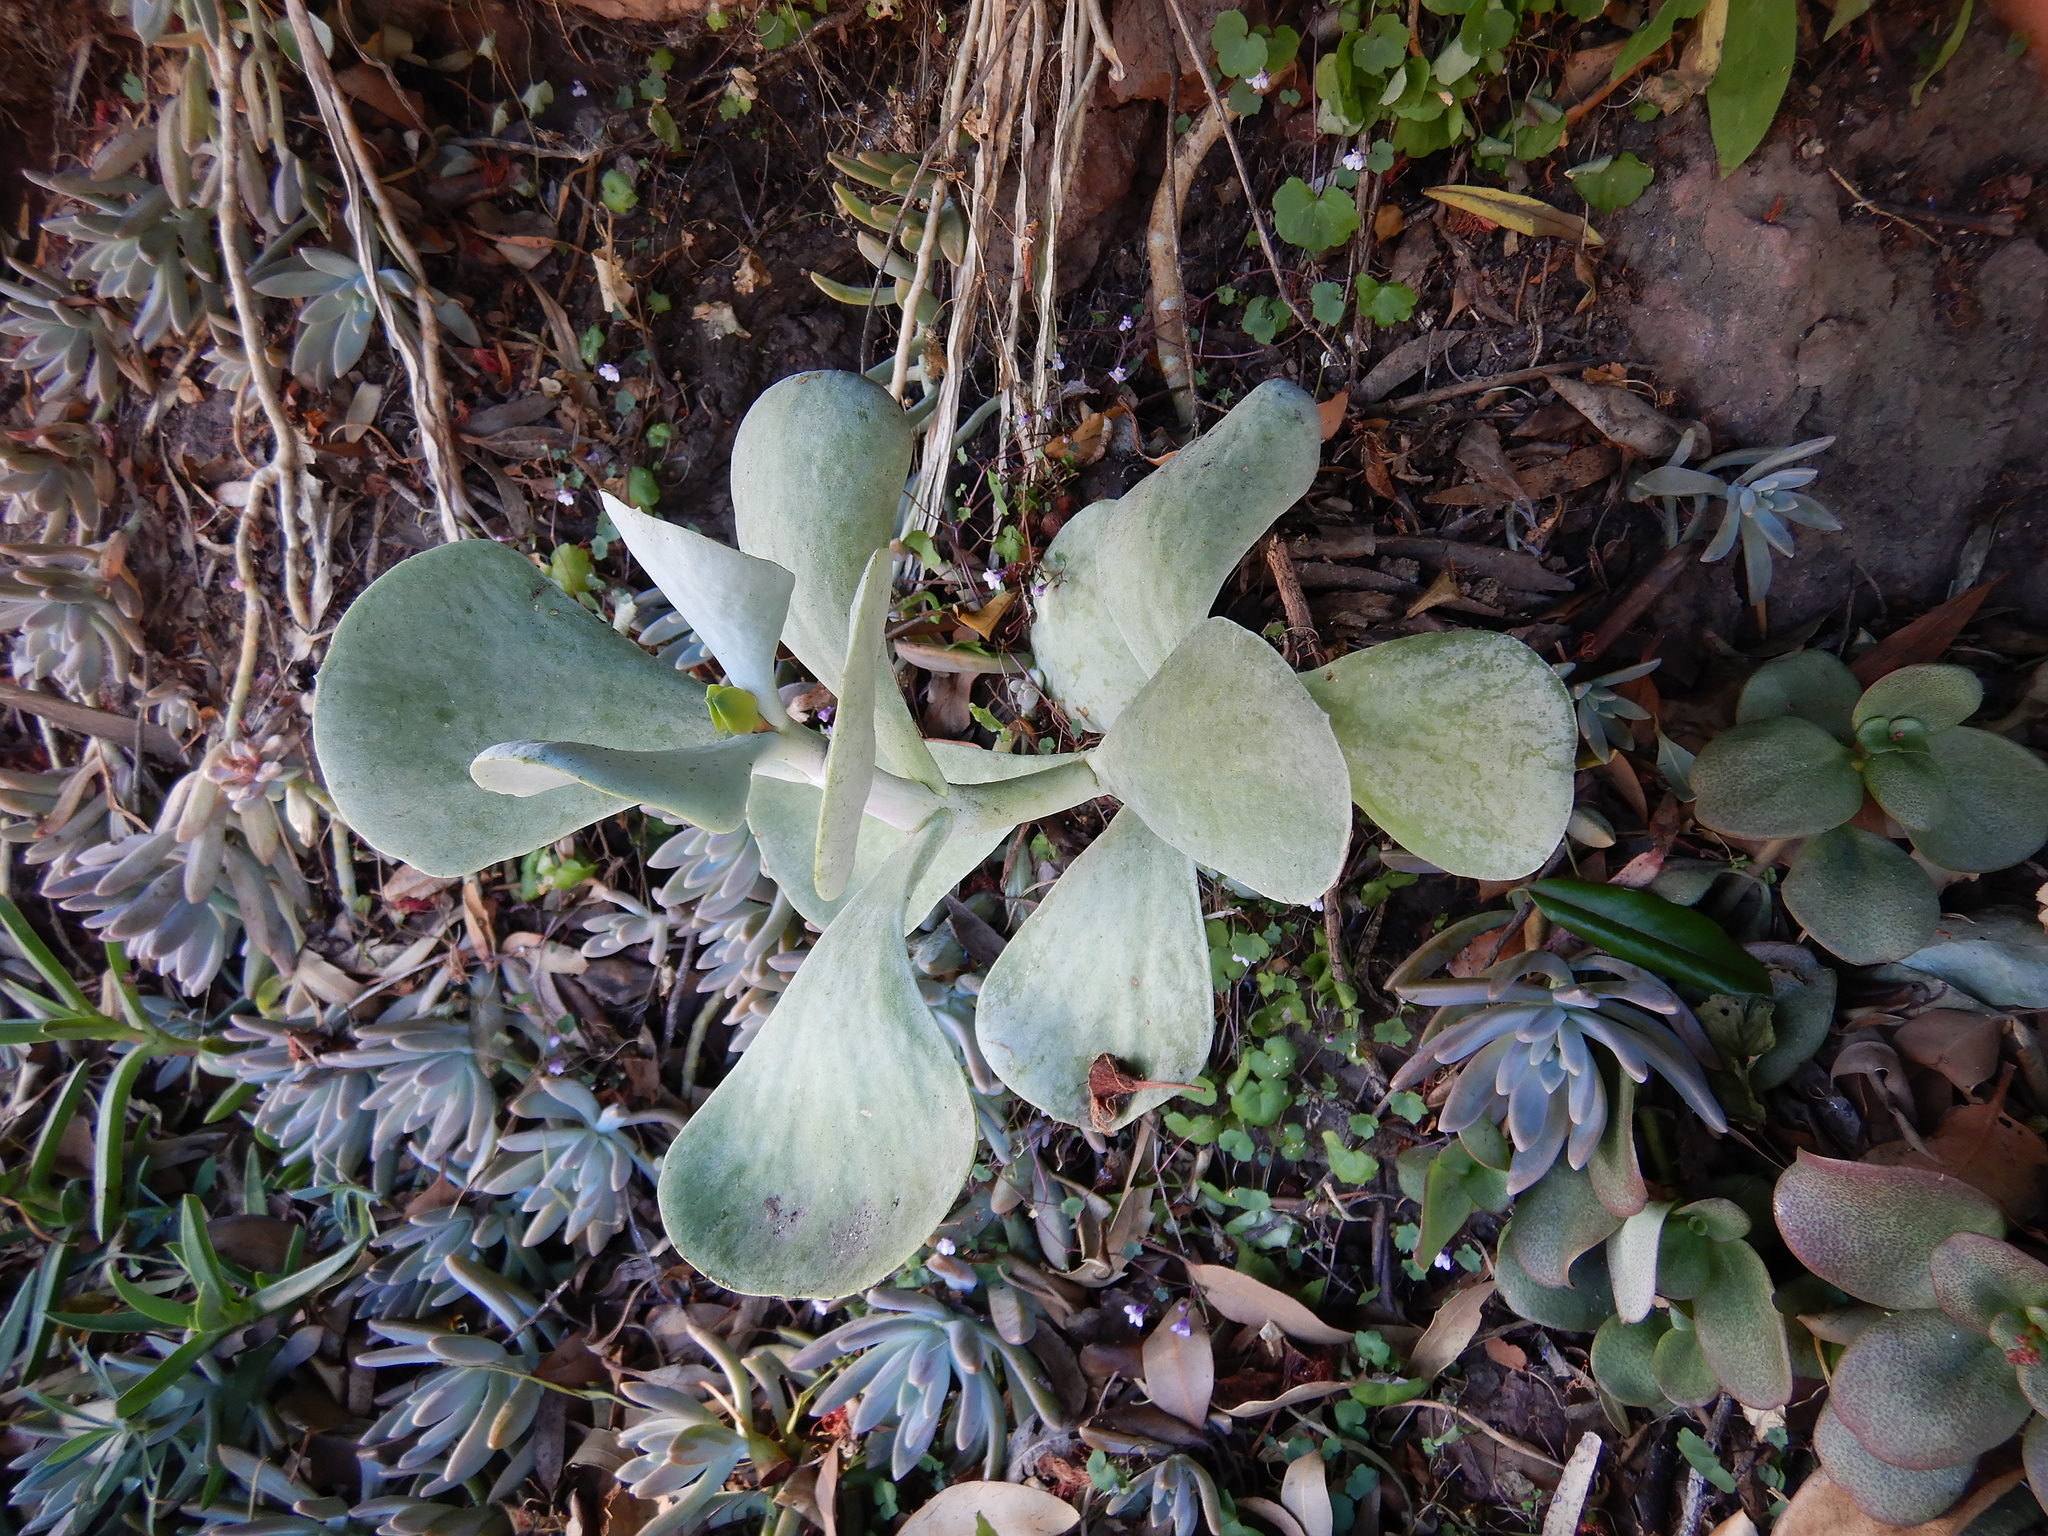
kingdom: Plantae
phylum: Tracheophyta
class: Magnoliopsida
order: Saxifragales
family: Crassulaceae
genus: Cotyledon
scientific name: Cotyledon orbiculata
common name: Pig's ear
